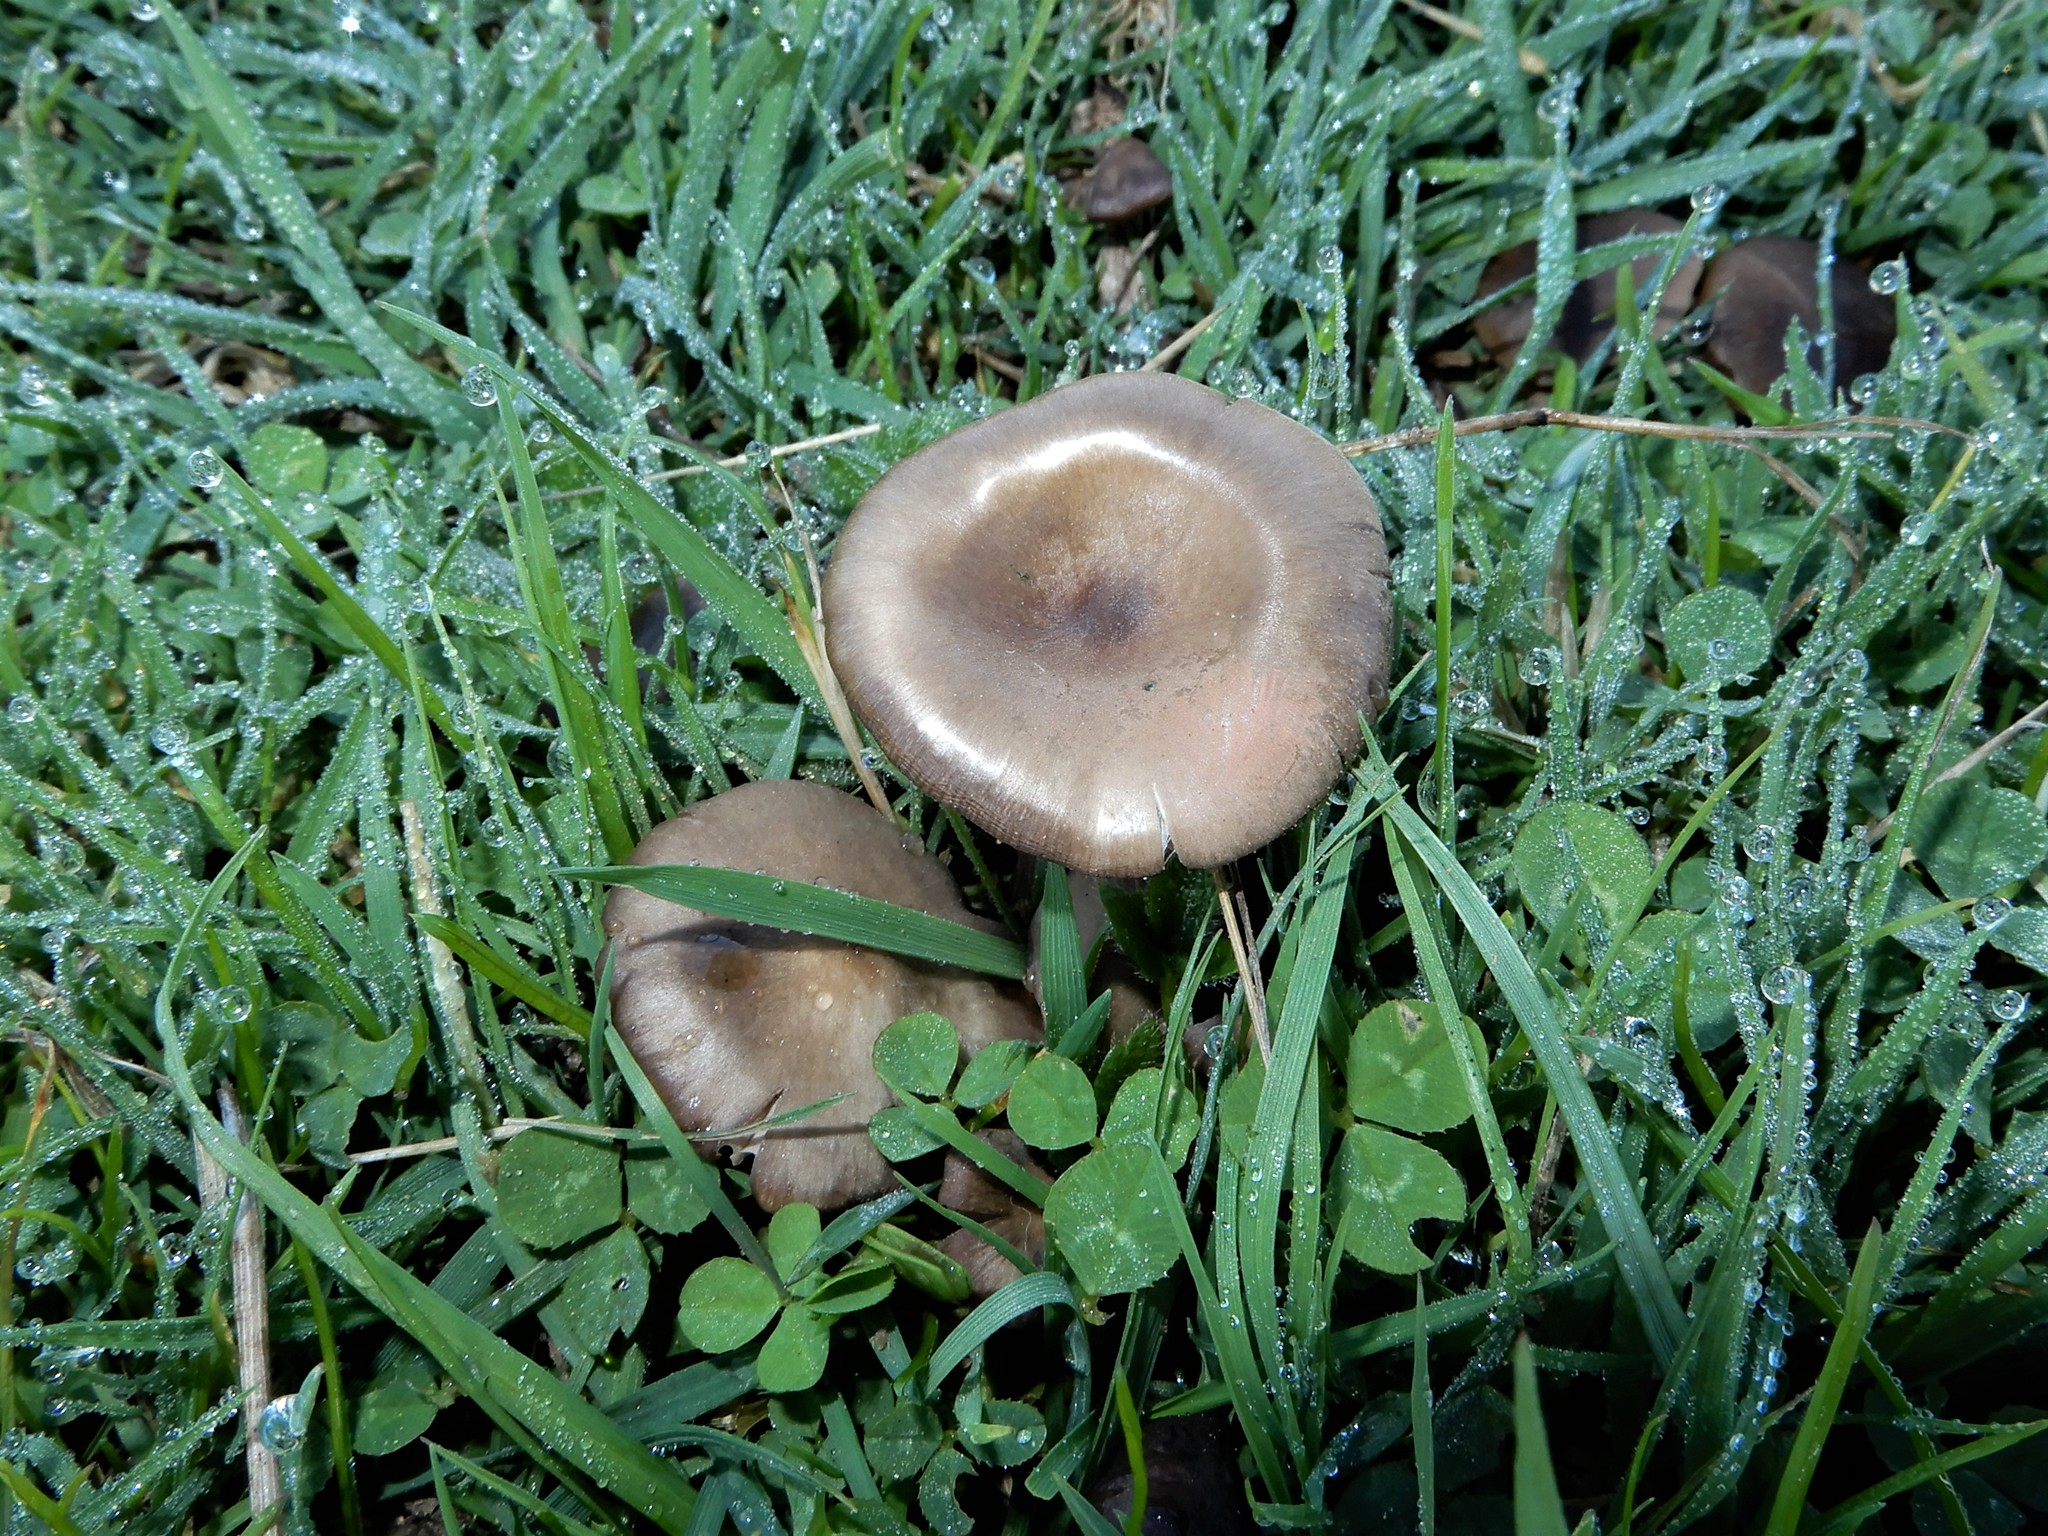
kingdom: Fungi
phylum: Basidiomycota
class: Agaricomycetes
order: Agaricales
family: Entolomataceae
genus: Entoloma
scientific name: Entoloma sericeum
